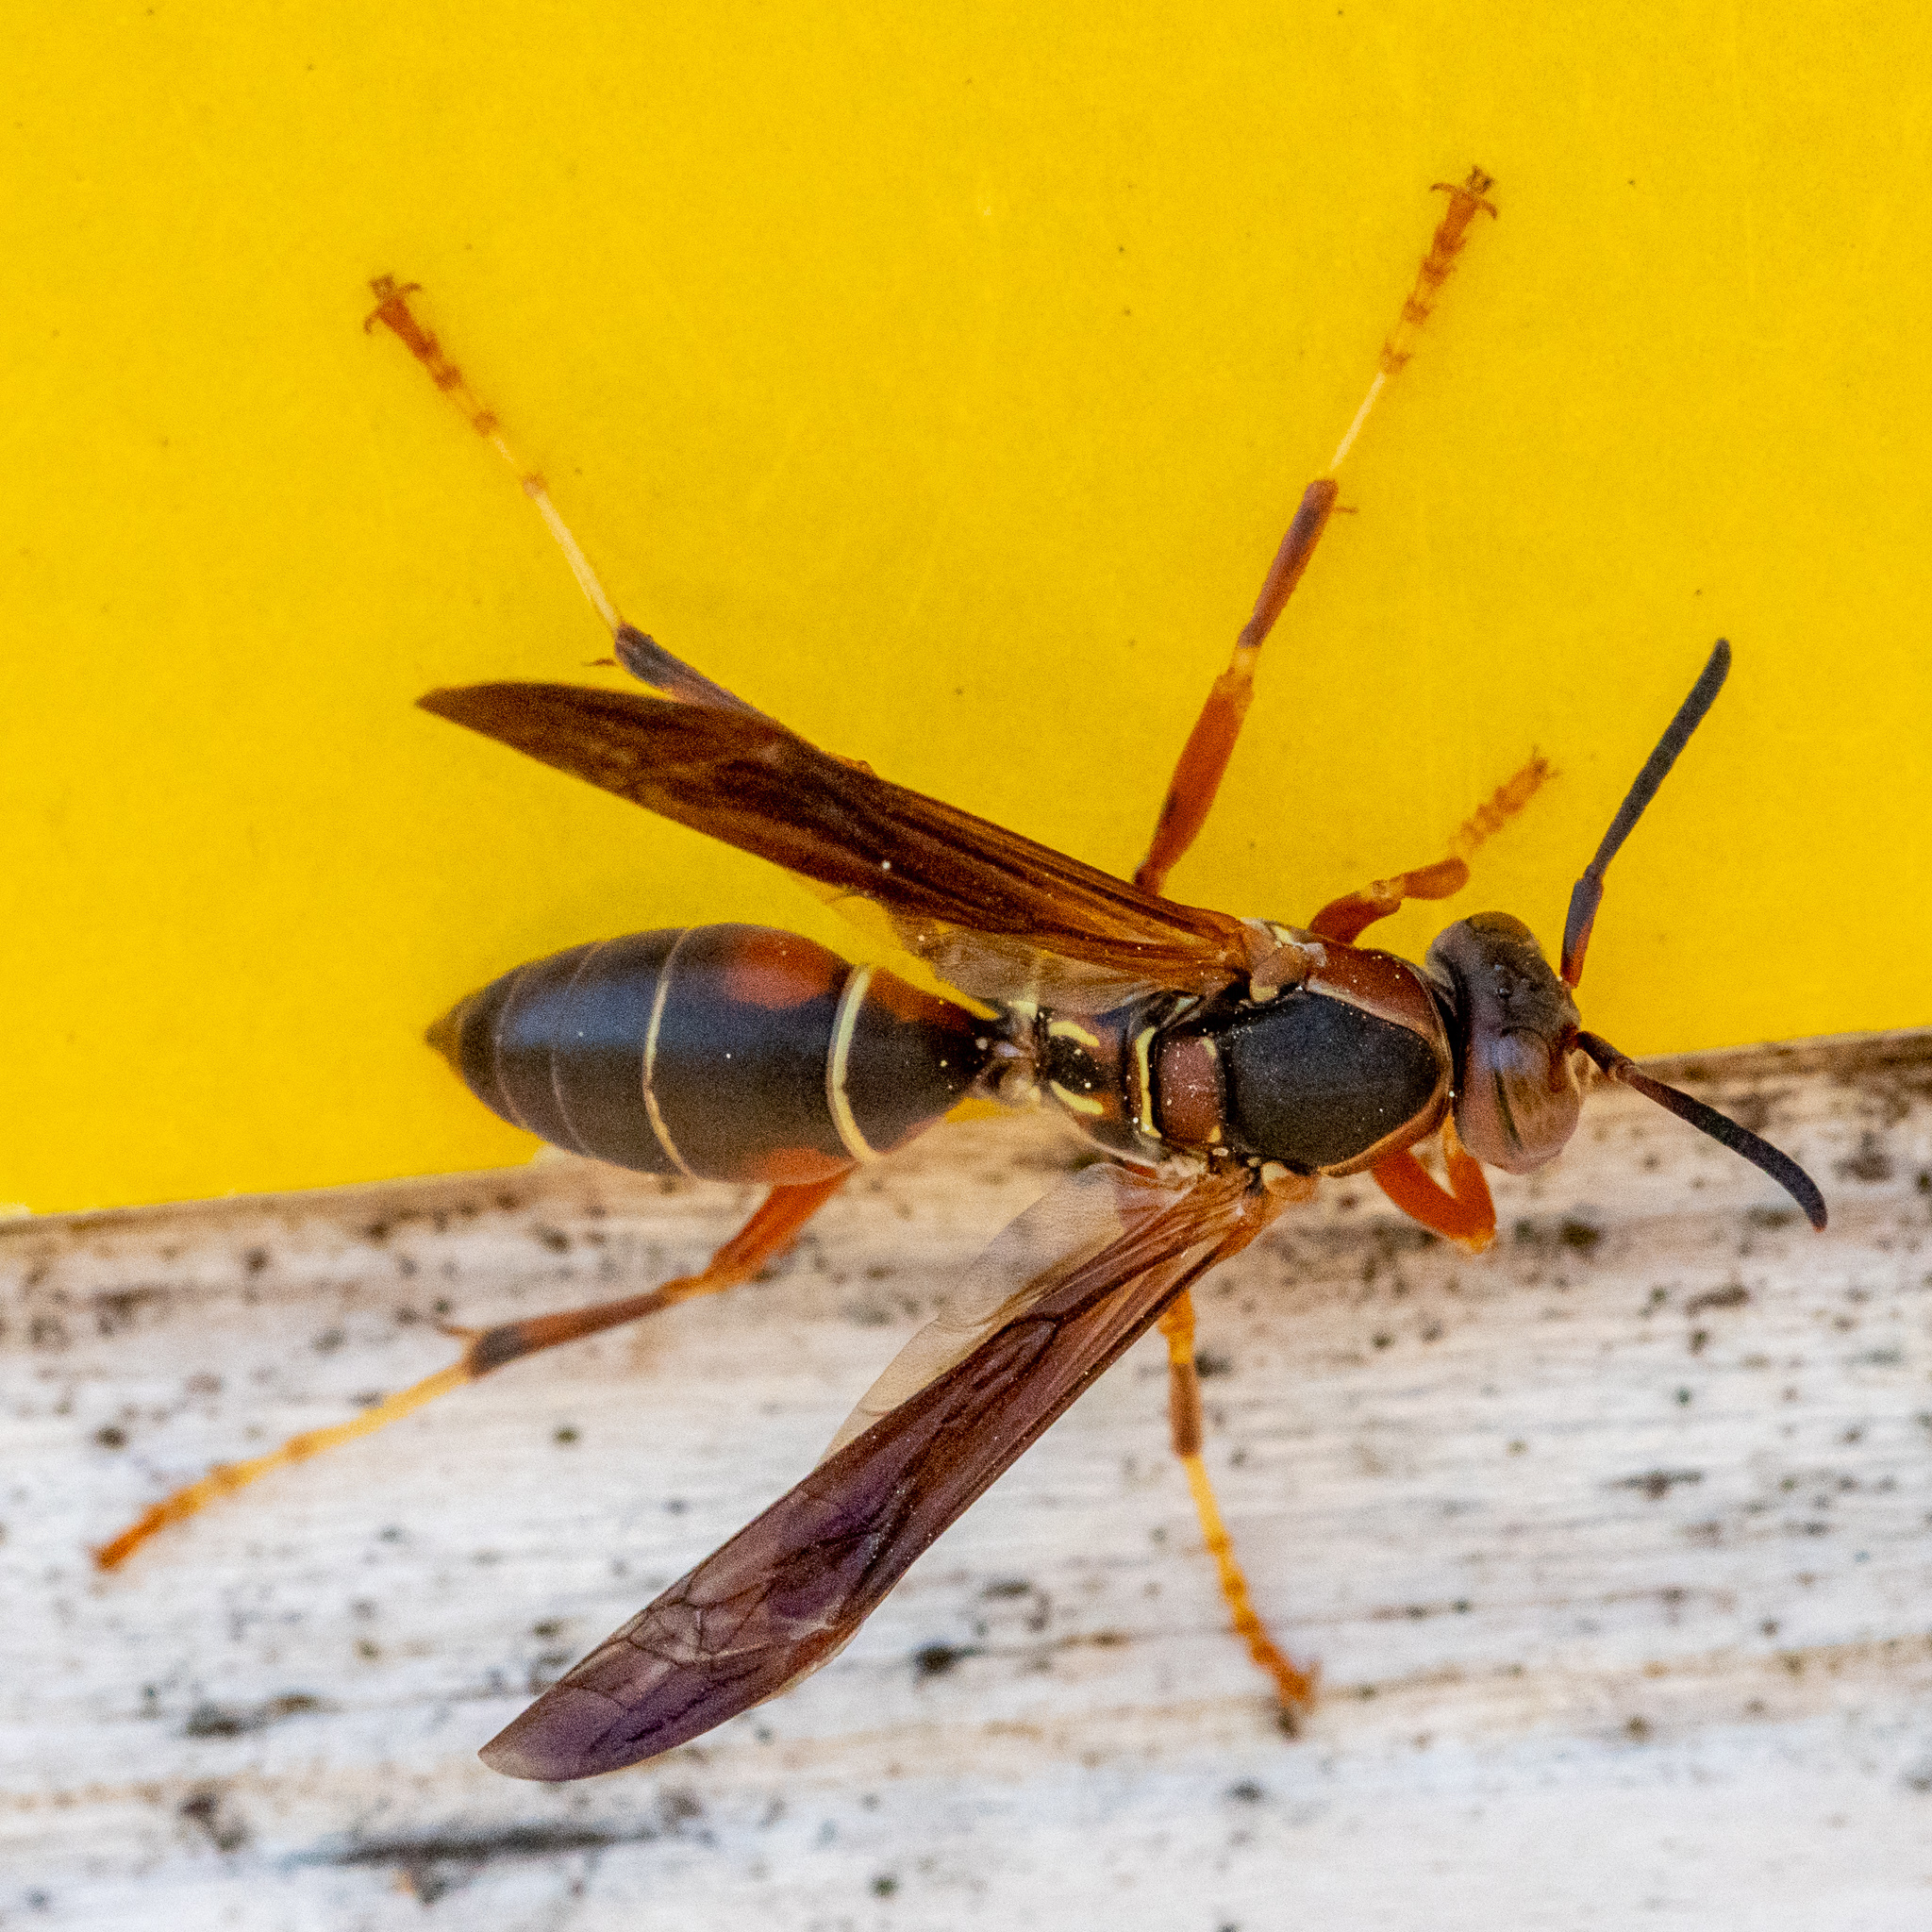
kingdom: Animalia
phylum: Arthropoda
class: Insecta
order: Hymenoptera
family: Eumenidae
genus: Polistes
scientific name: Polistes fuscatus
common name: Dark paper wasp
